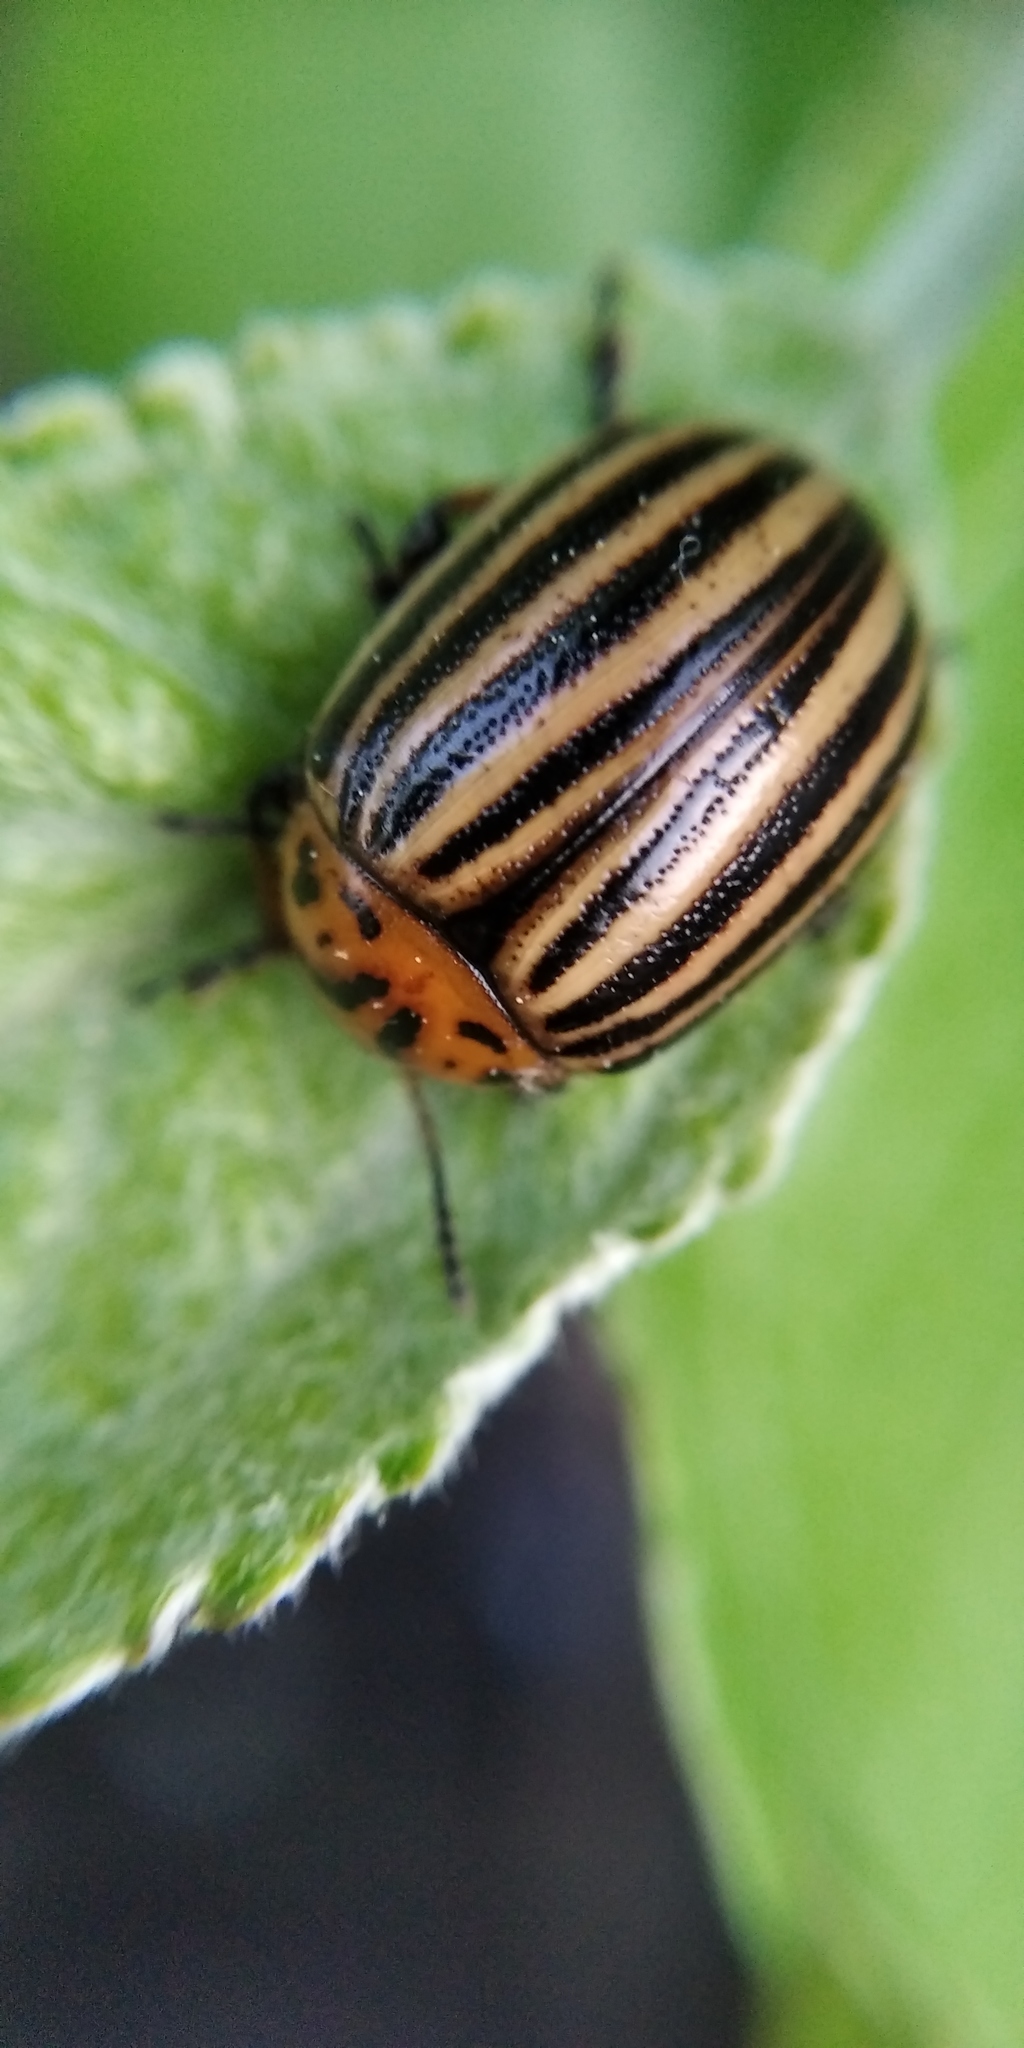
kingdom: Animalia
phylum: Arthropoda
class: Insecta
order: Coleoptera
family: Chrysomelidae
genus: Leptinotarsa
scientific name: Leptinotarsa decemlineata
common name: Colorado potato beetle
